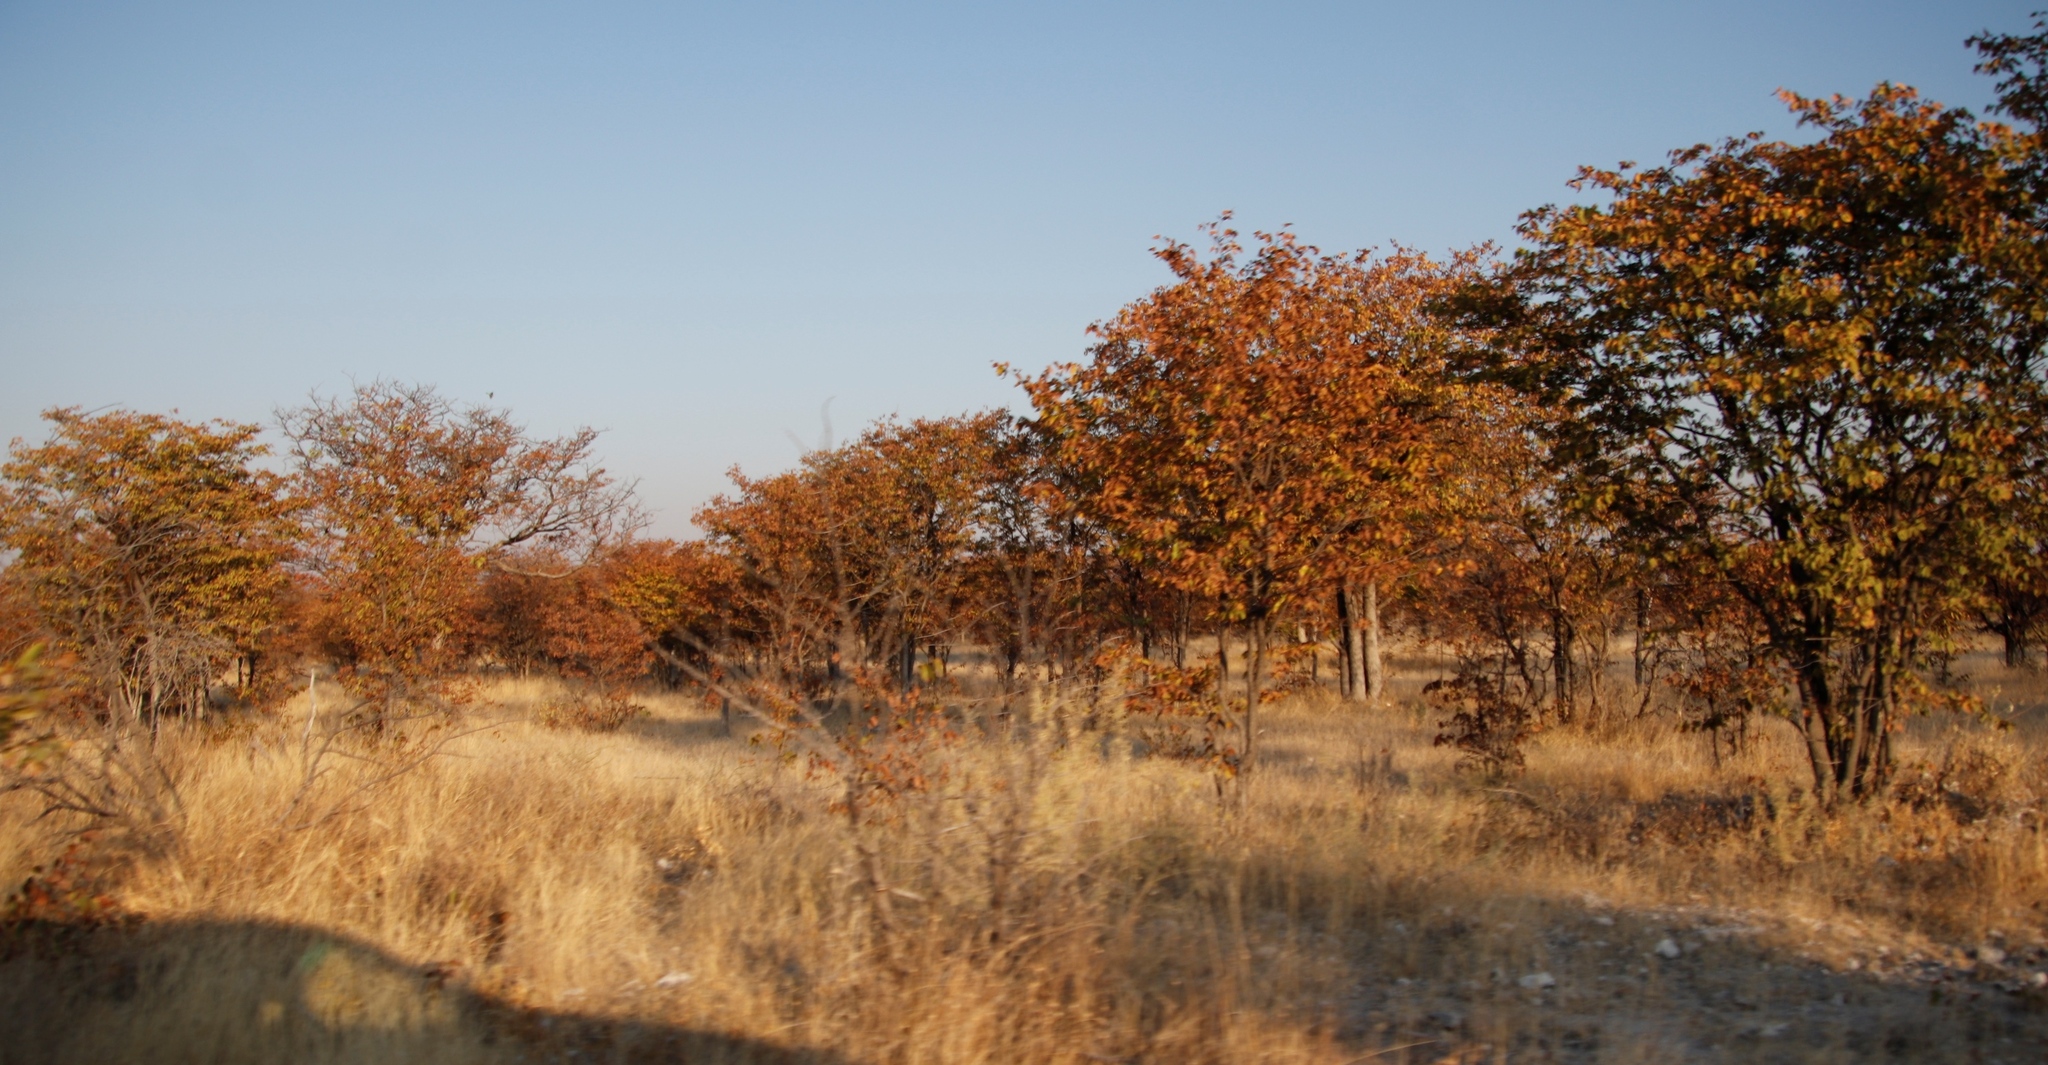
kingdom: Plantae
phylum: Tracheophyta
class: Magnoliopsida
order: Fabales
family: Fabaceae
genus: Colophospermum
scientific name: Colophospermum mopane
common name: Mopane
